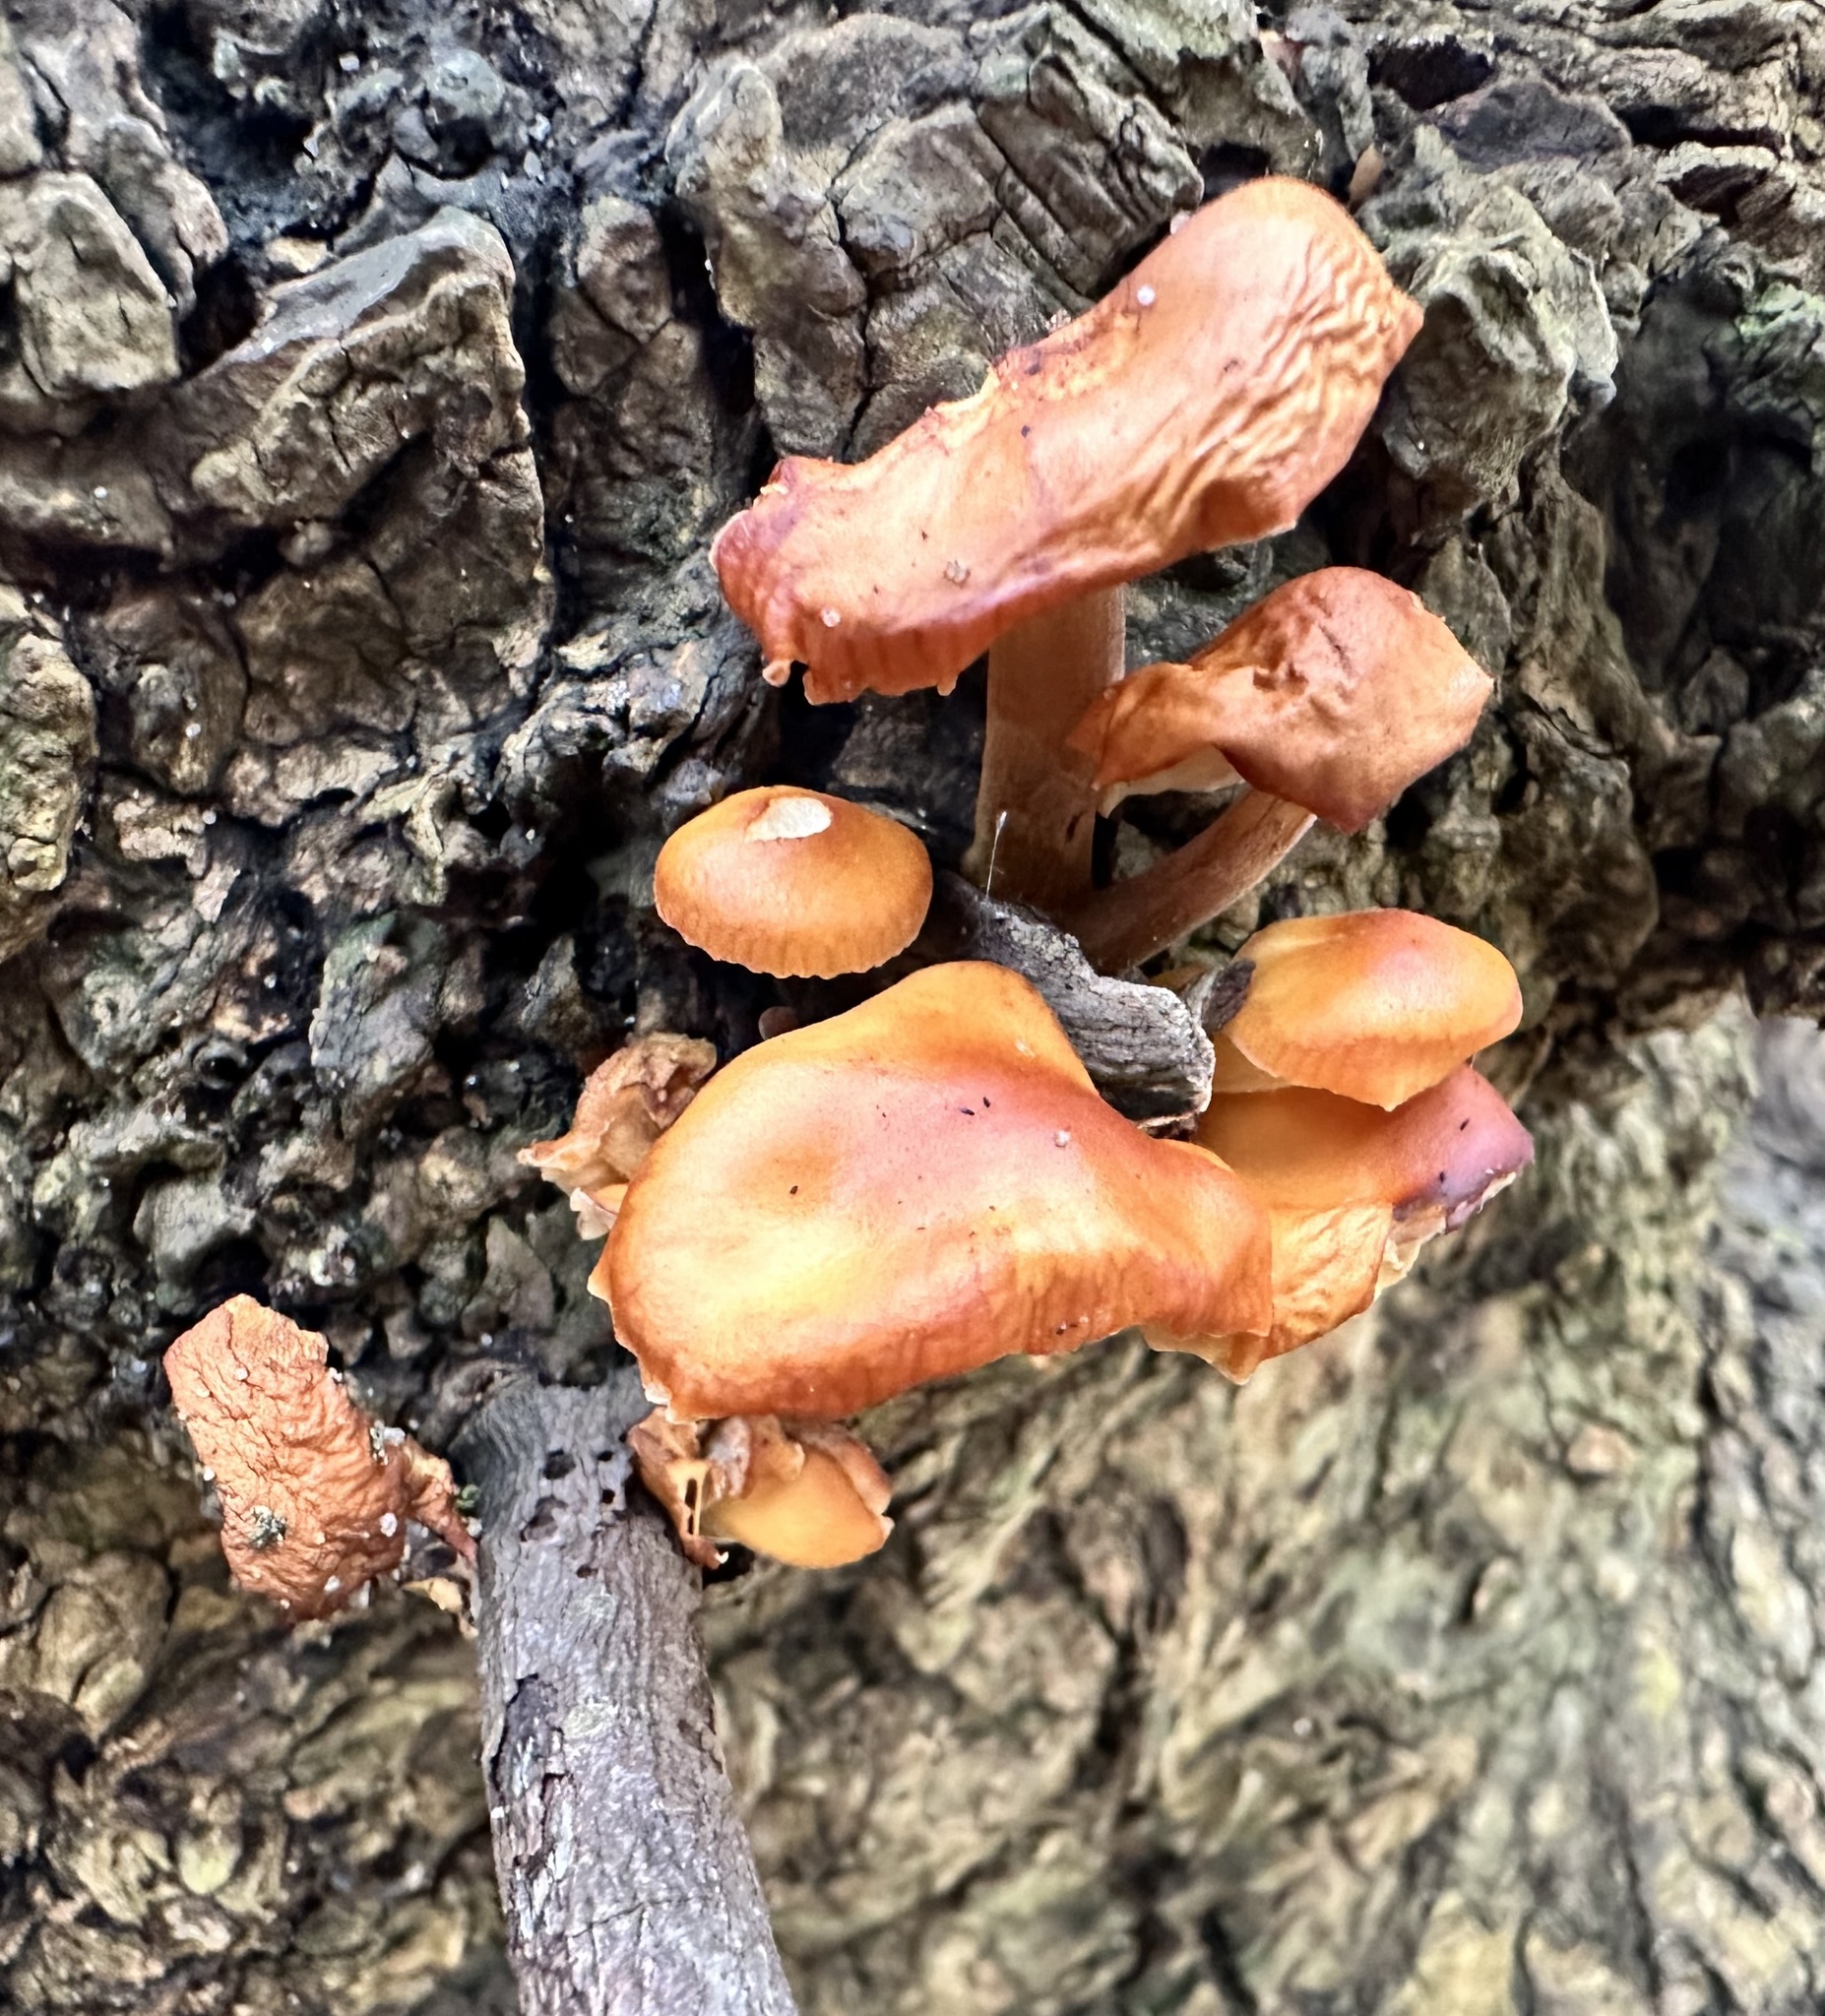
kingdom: Fungi
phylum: Basidiomycota
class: Agaricomycetes
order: Agaricales
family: Physalacriaceae
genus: Flammulina
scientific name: Flammulina
